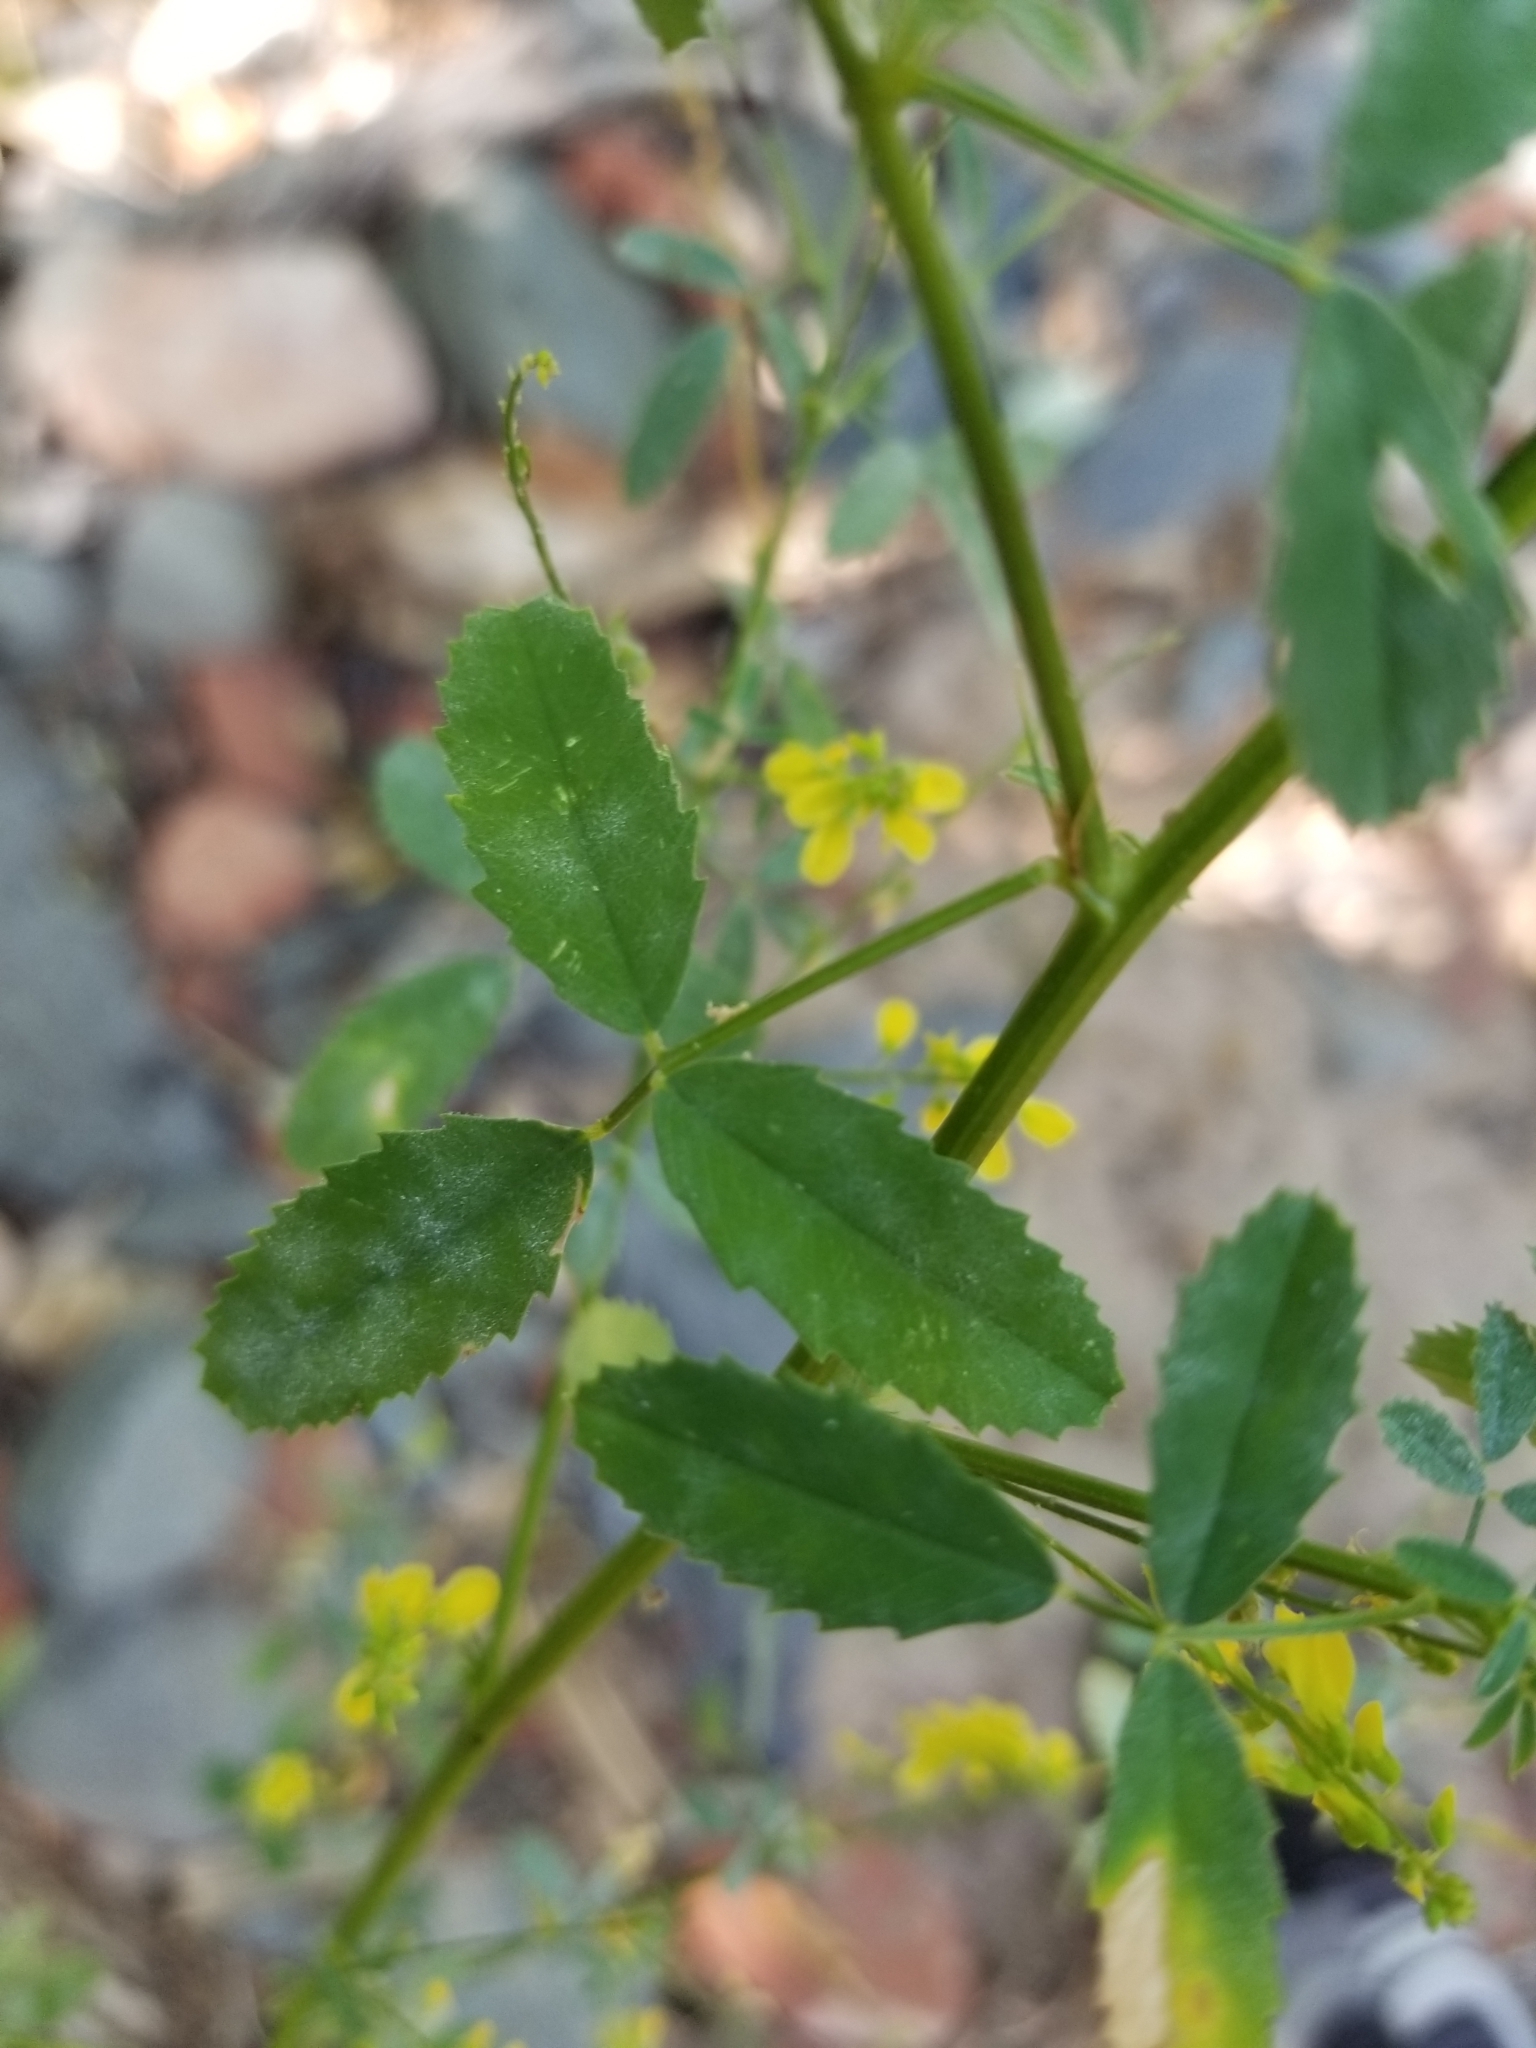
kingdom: Plantae
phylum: Tracheophyta
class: Magnoliopsida
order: Fabales
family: Fabaceae
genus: Melilotus
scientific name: Melilotus officinalis
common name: Sweetclover
